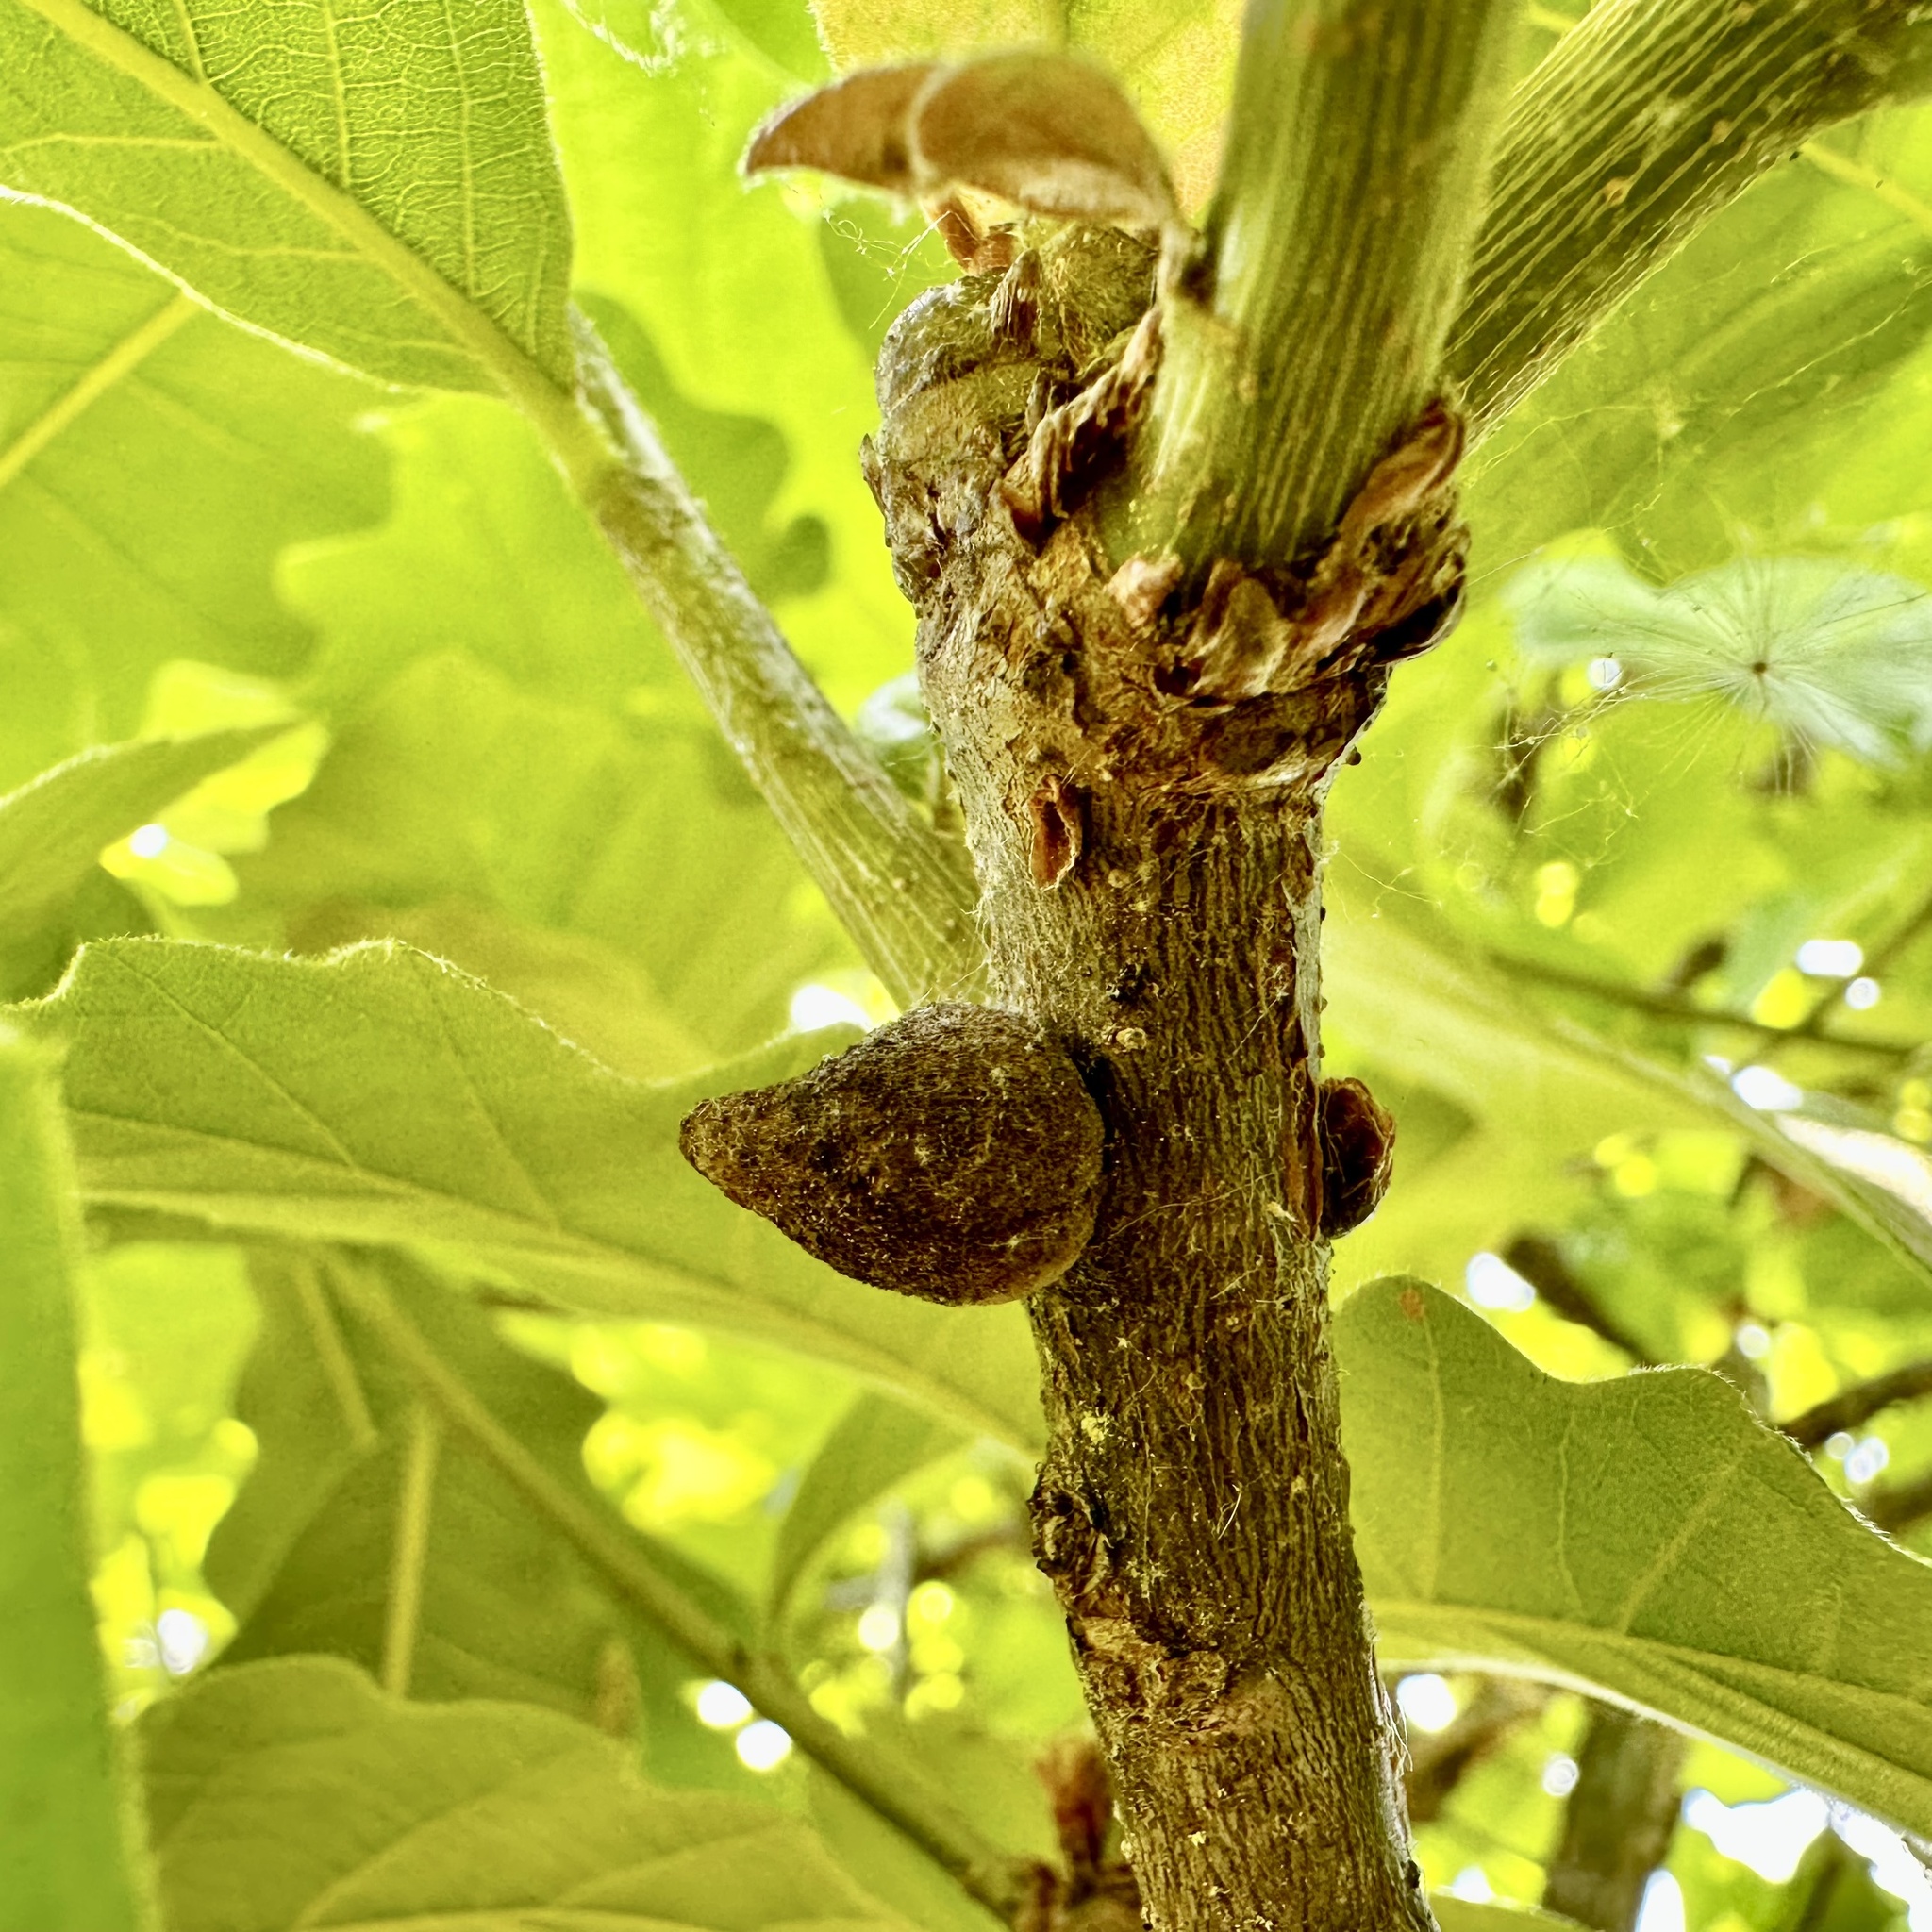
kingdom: Animalia
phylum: Arthropoda
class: Insecta
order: Hymenoptera
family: Cynipidae
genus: Disholcaspis
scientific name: Disholcaspis
